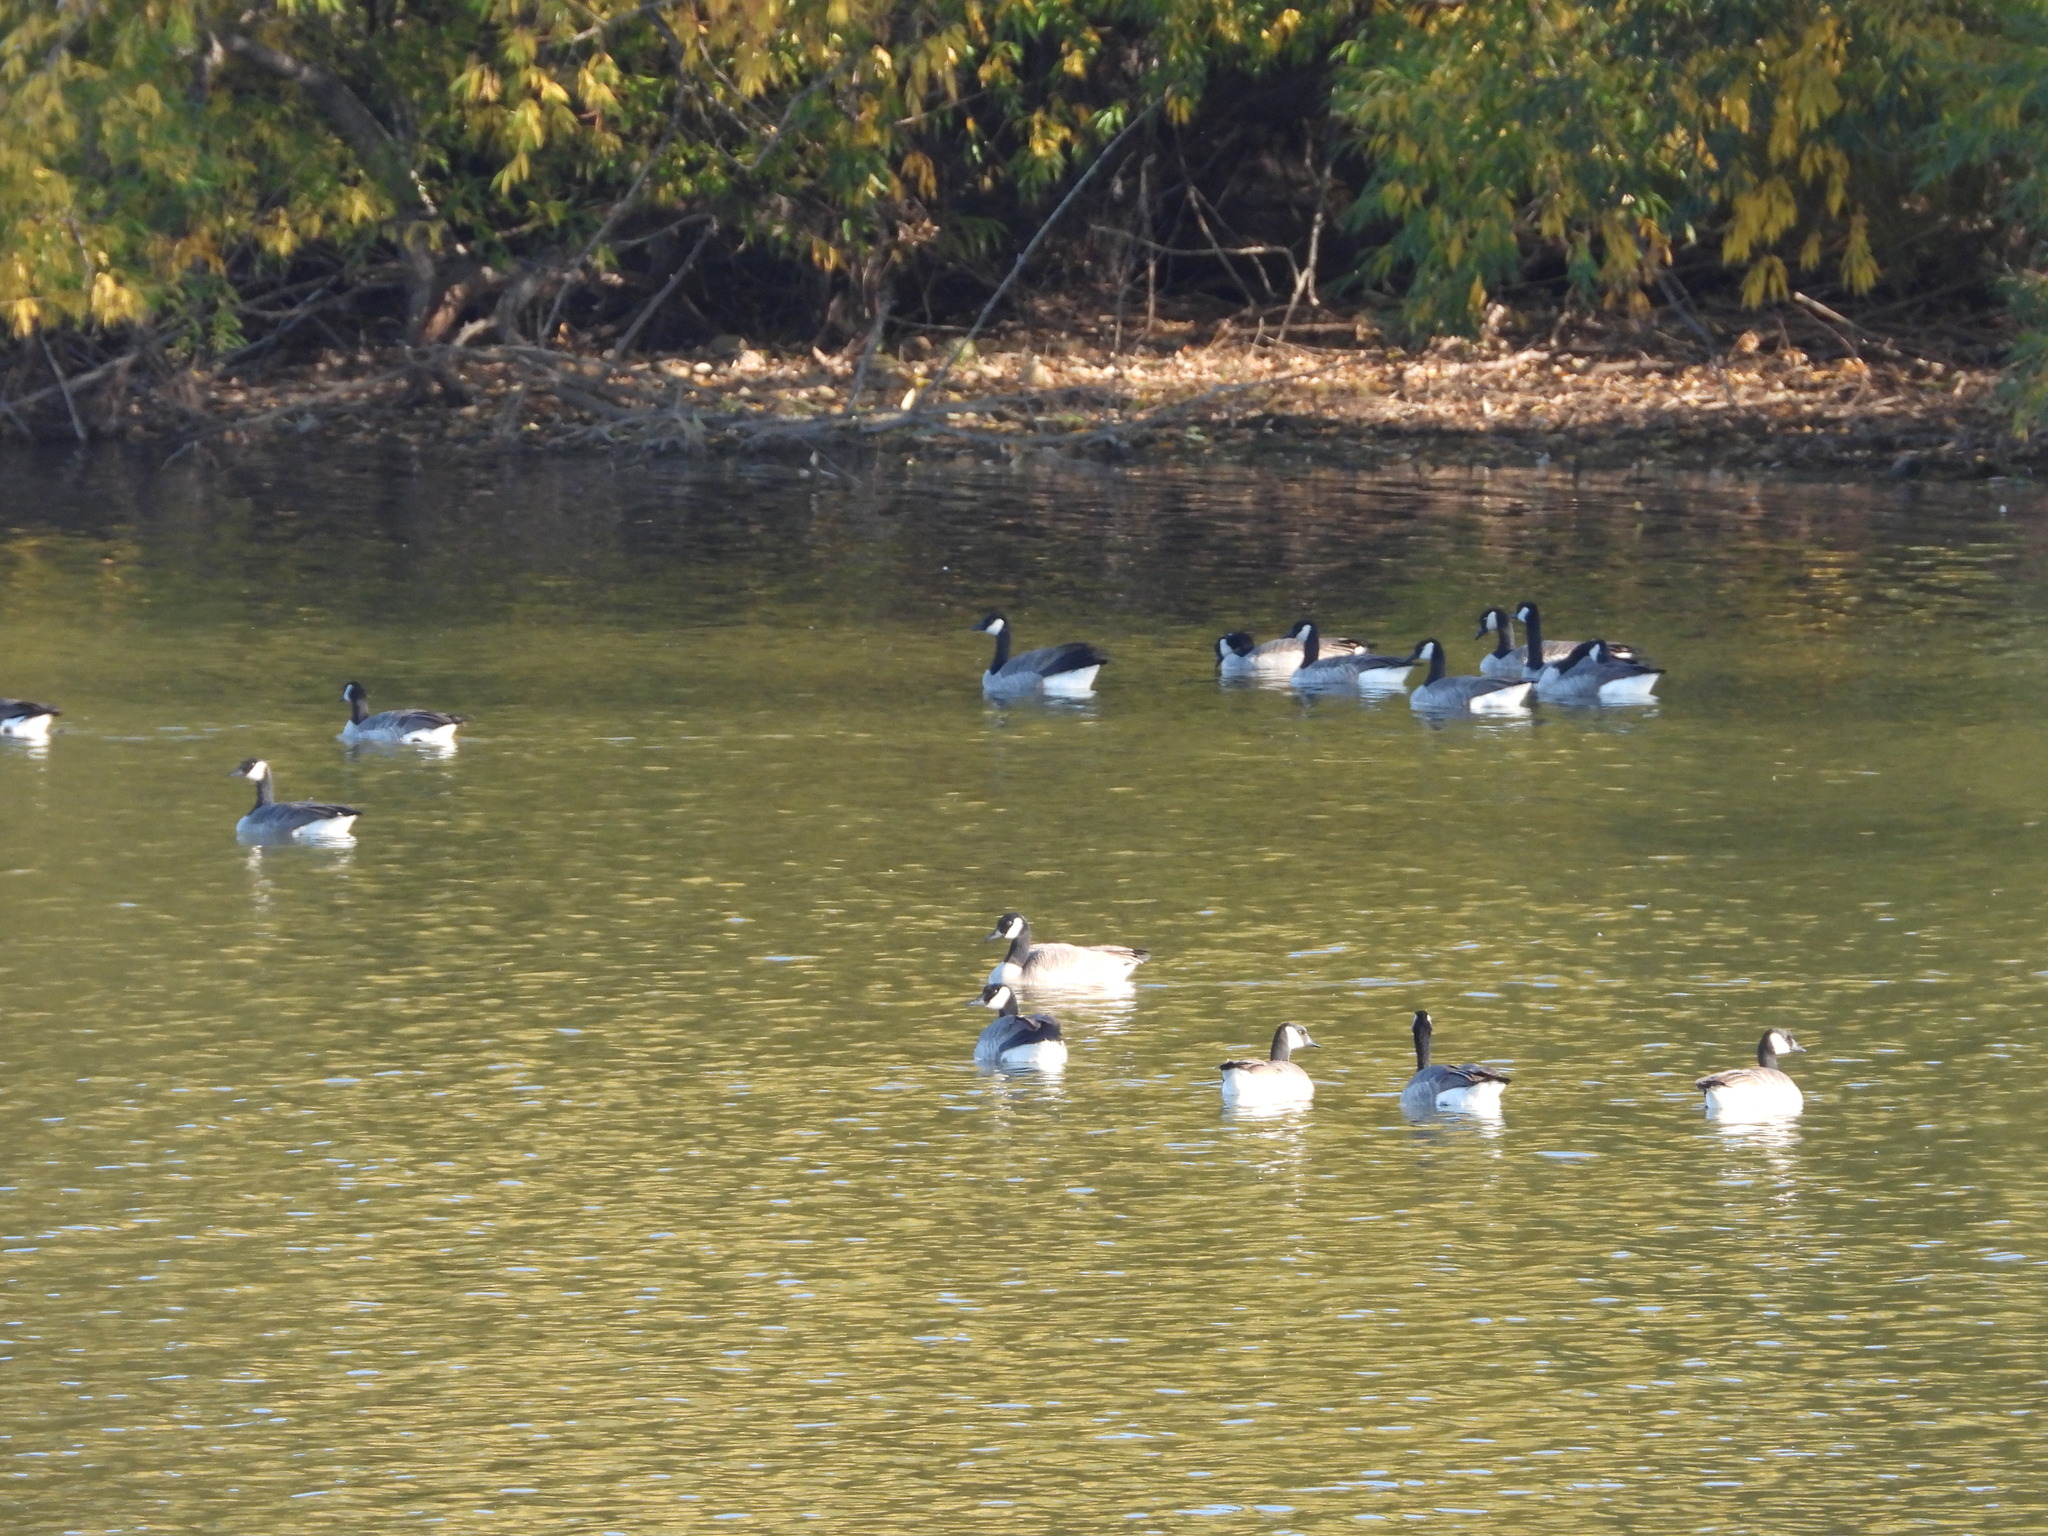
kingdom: Animalia
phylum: Chordata
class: Aves
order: Anseriformes
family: Anatidae
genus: Branta
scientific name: Branta hutchinsii
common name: Cackling goose
